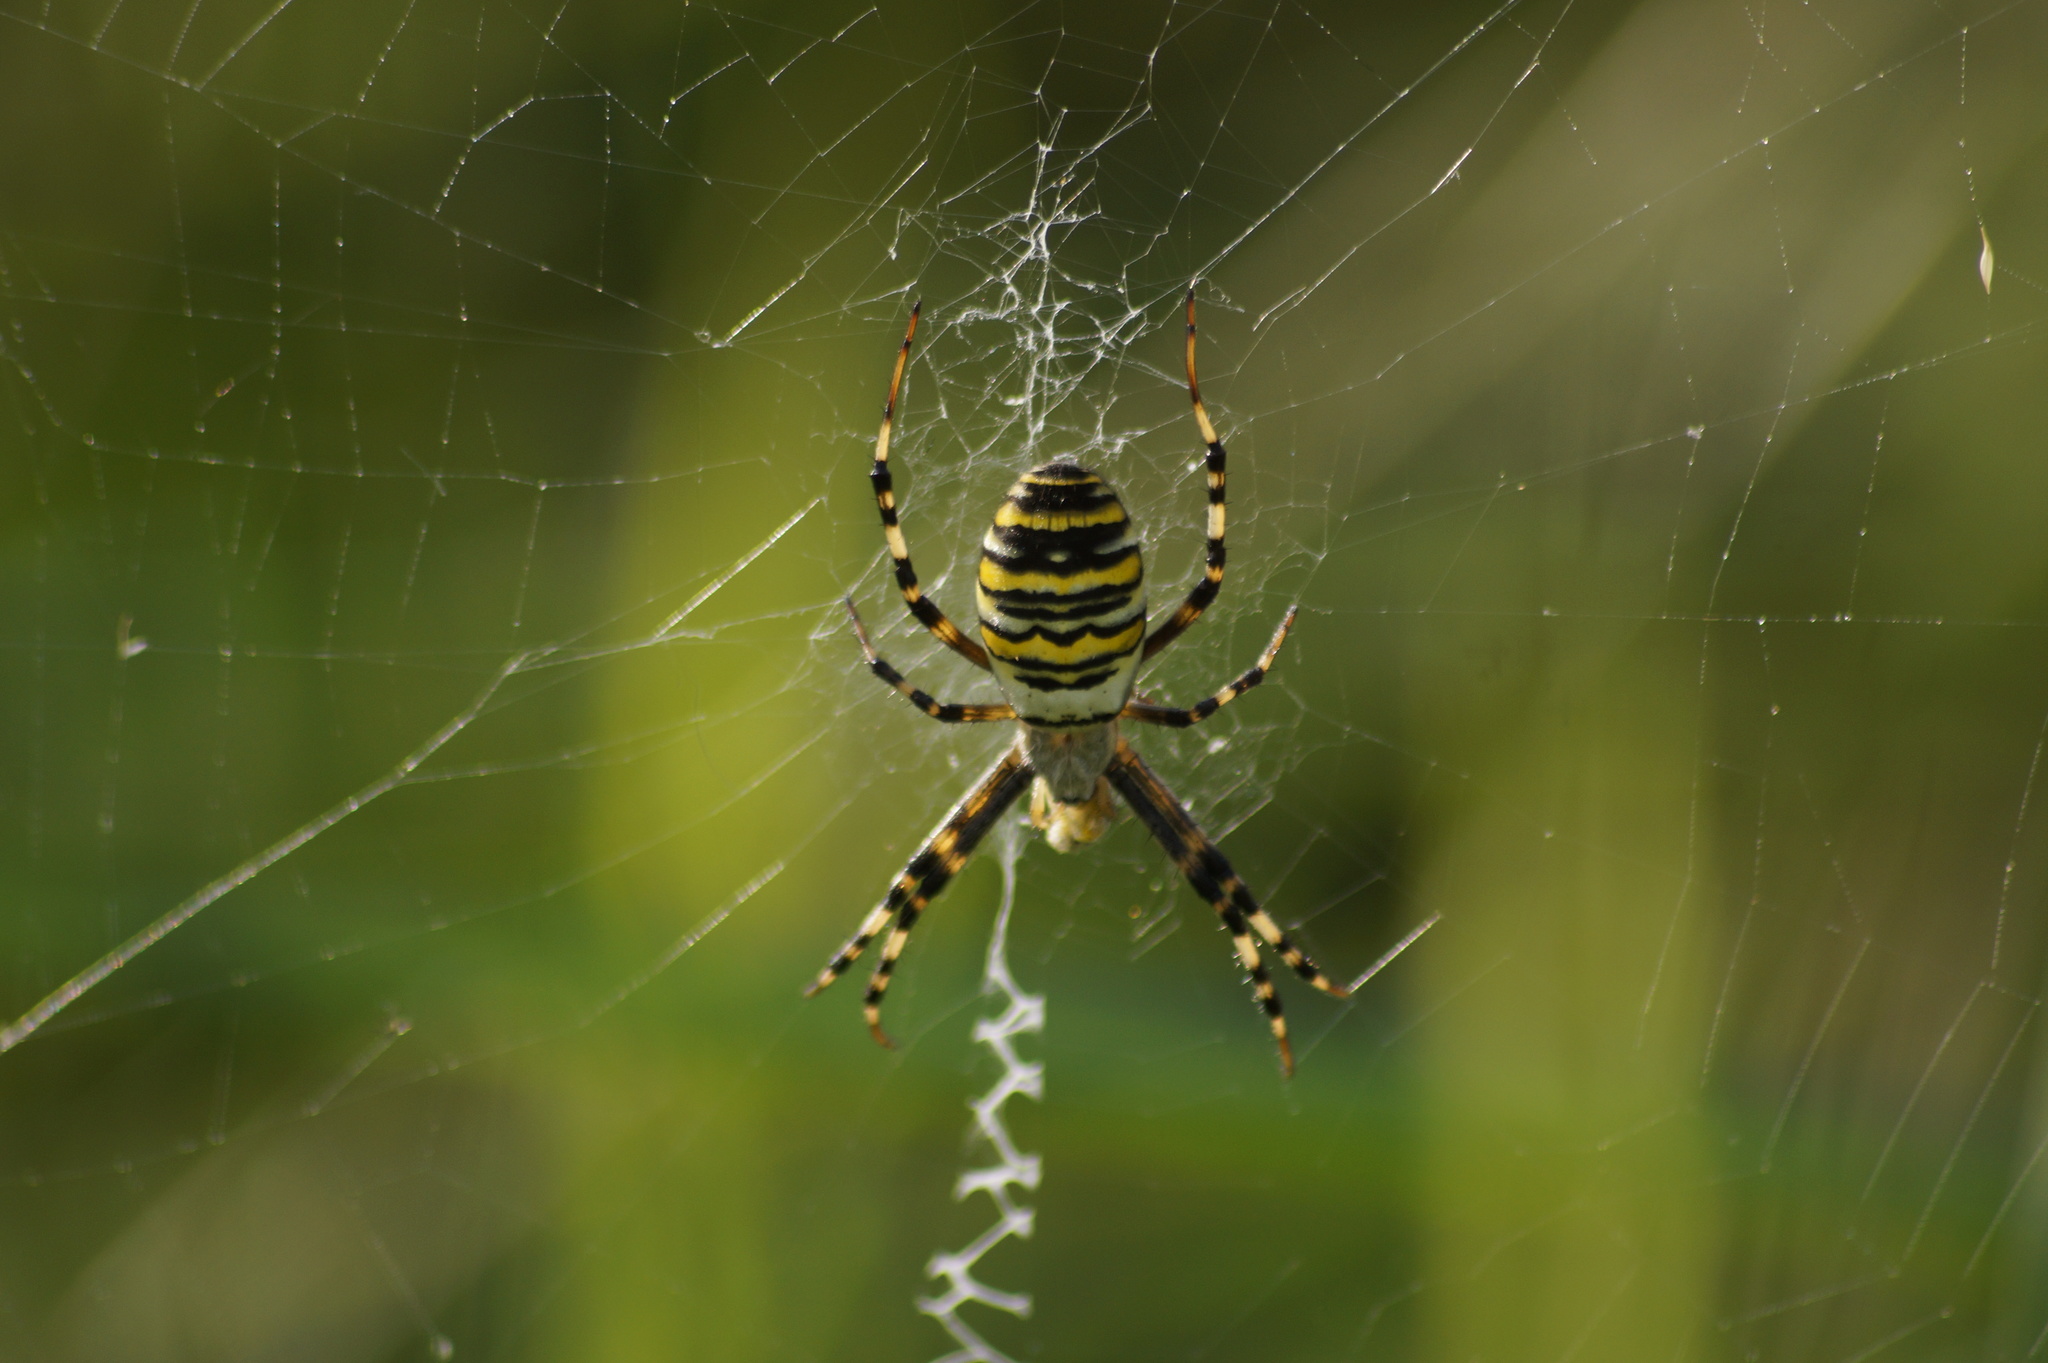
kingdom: Animalia
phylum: Arthropoda
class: Arachnida
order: Araneae
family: Araneidae
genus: Argiope
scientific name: Argiope bruennichi
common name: Wasp spider
